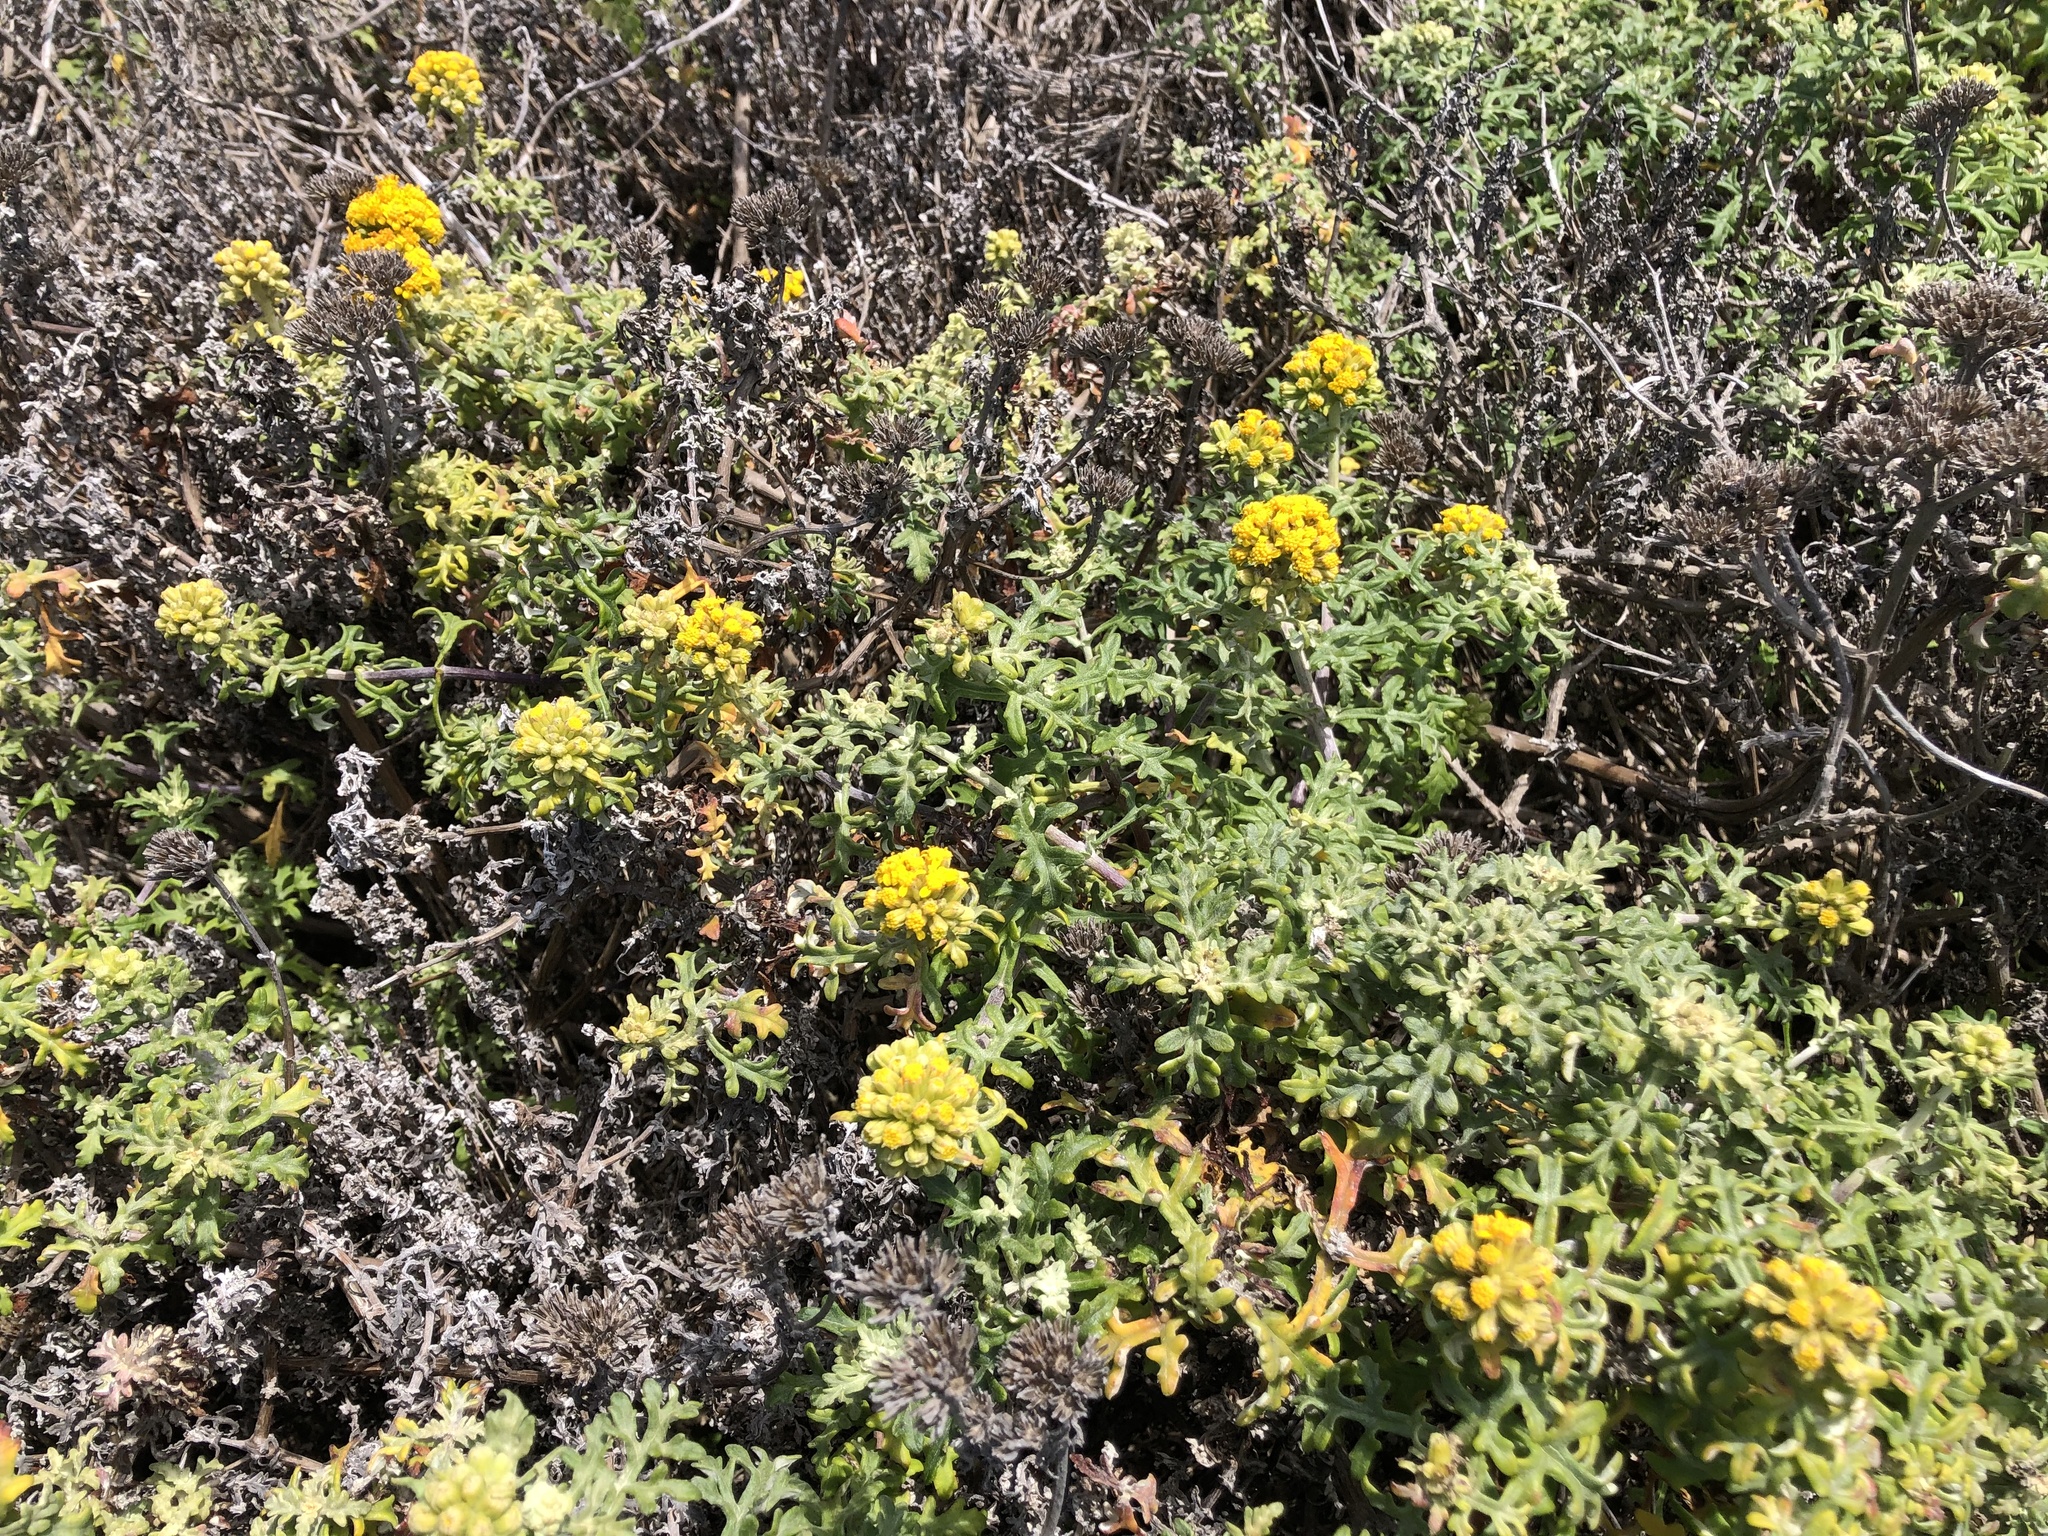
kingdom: Plantae
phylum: Tracheophyta
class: Magnoliopsida
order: Asterales
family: Asteraceae
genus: Eriophyllum
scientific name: Eriophyllum staechadifolium
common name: Lizardtail
